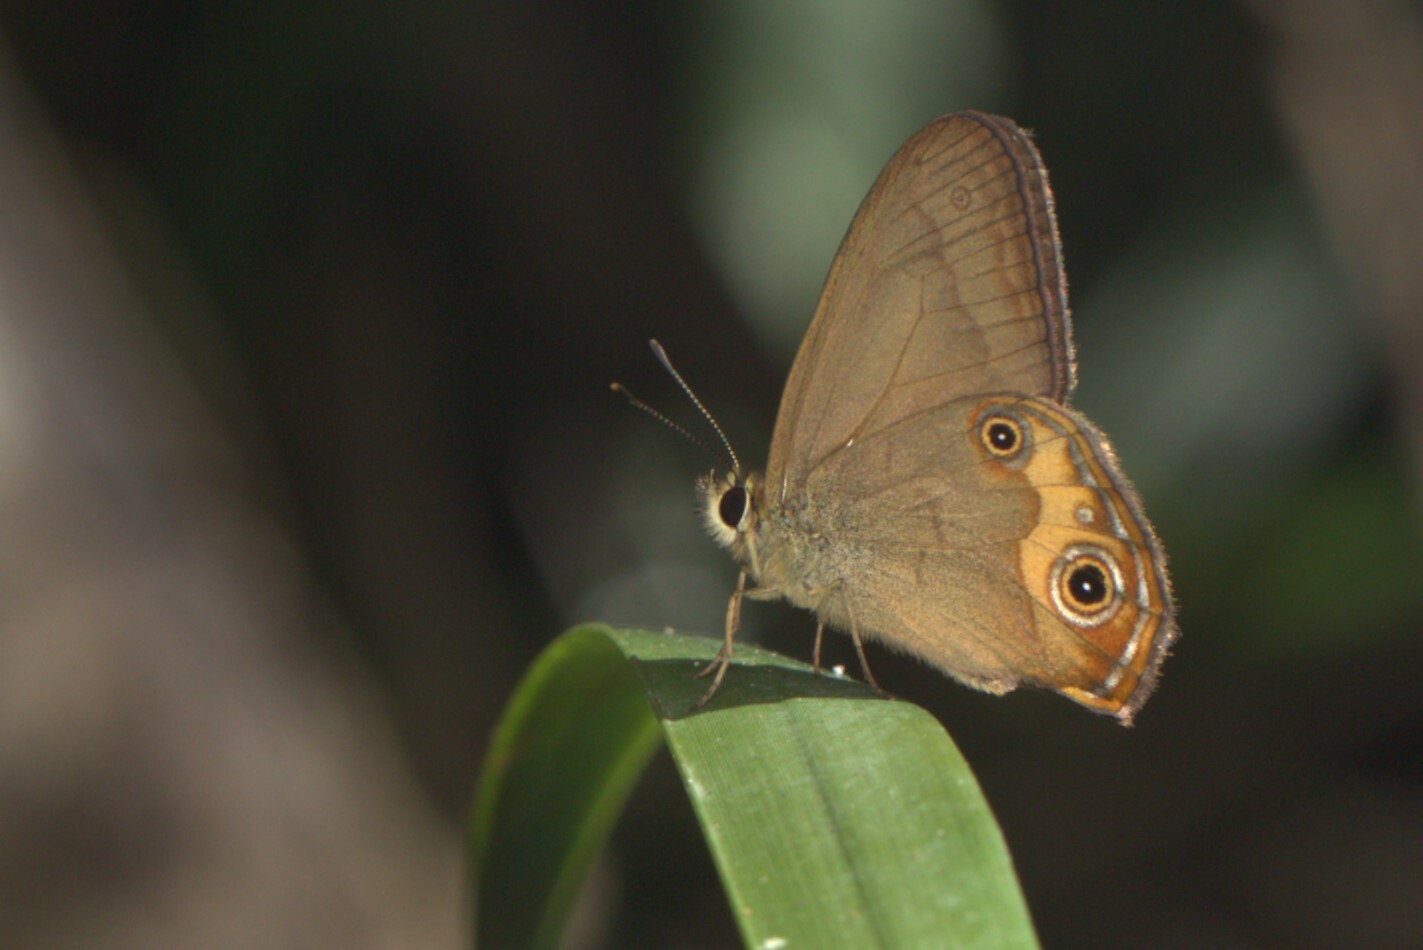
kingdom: Animalia
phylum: Arthropoda
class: Insecta
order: Lepidoptera
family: Nymphalidae
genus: Hypocysta
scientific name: Hypocysta metirius
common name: Brown ringlet
